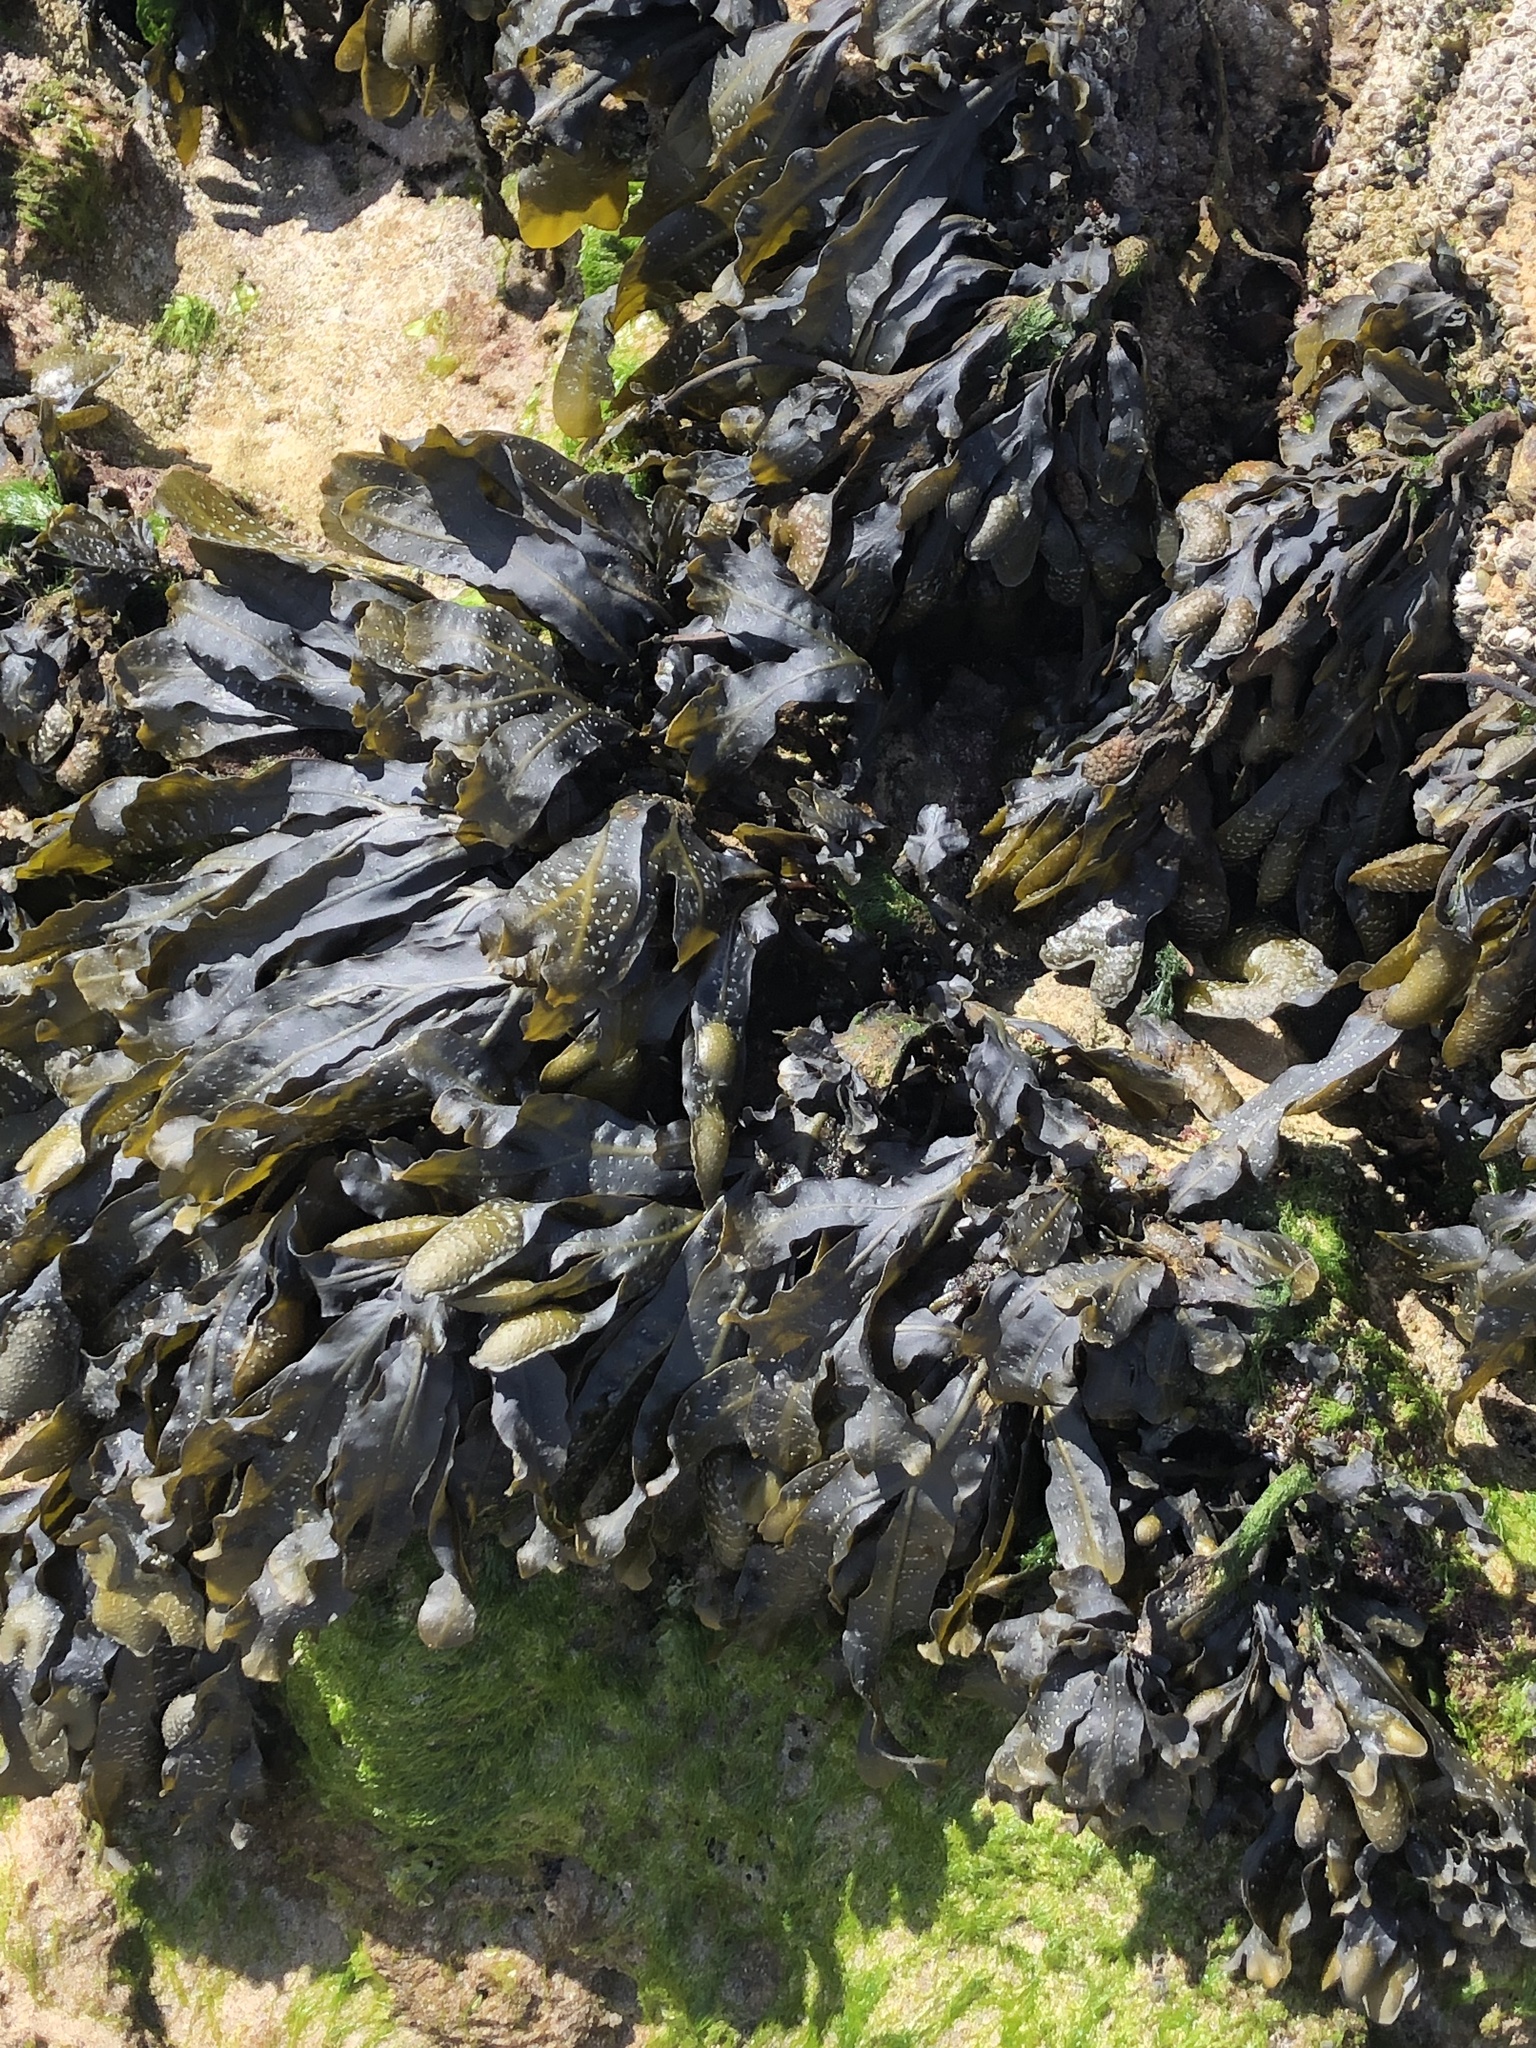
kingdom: Chromista
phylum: Ochrophyta
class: Phaeophyceae
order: Fucales
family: Fucaceae
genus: Fucus
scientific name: Fucus
